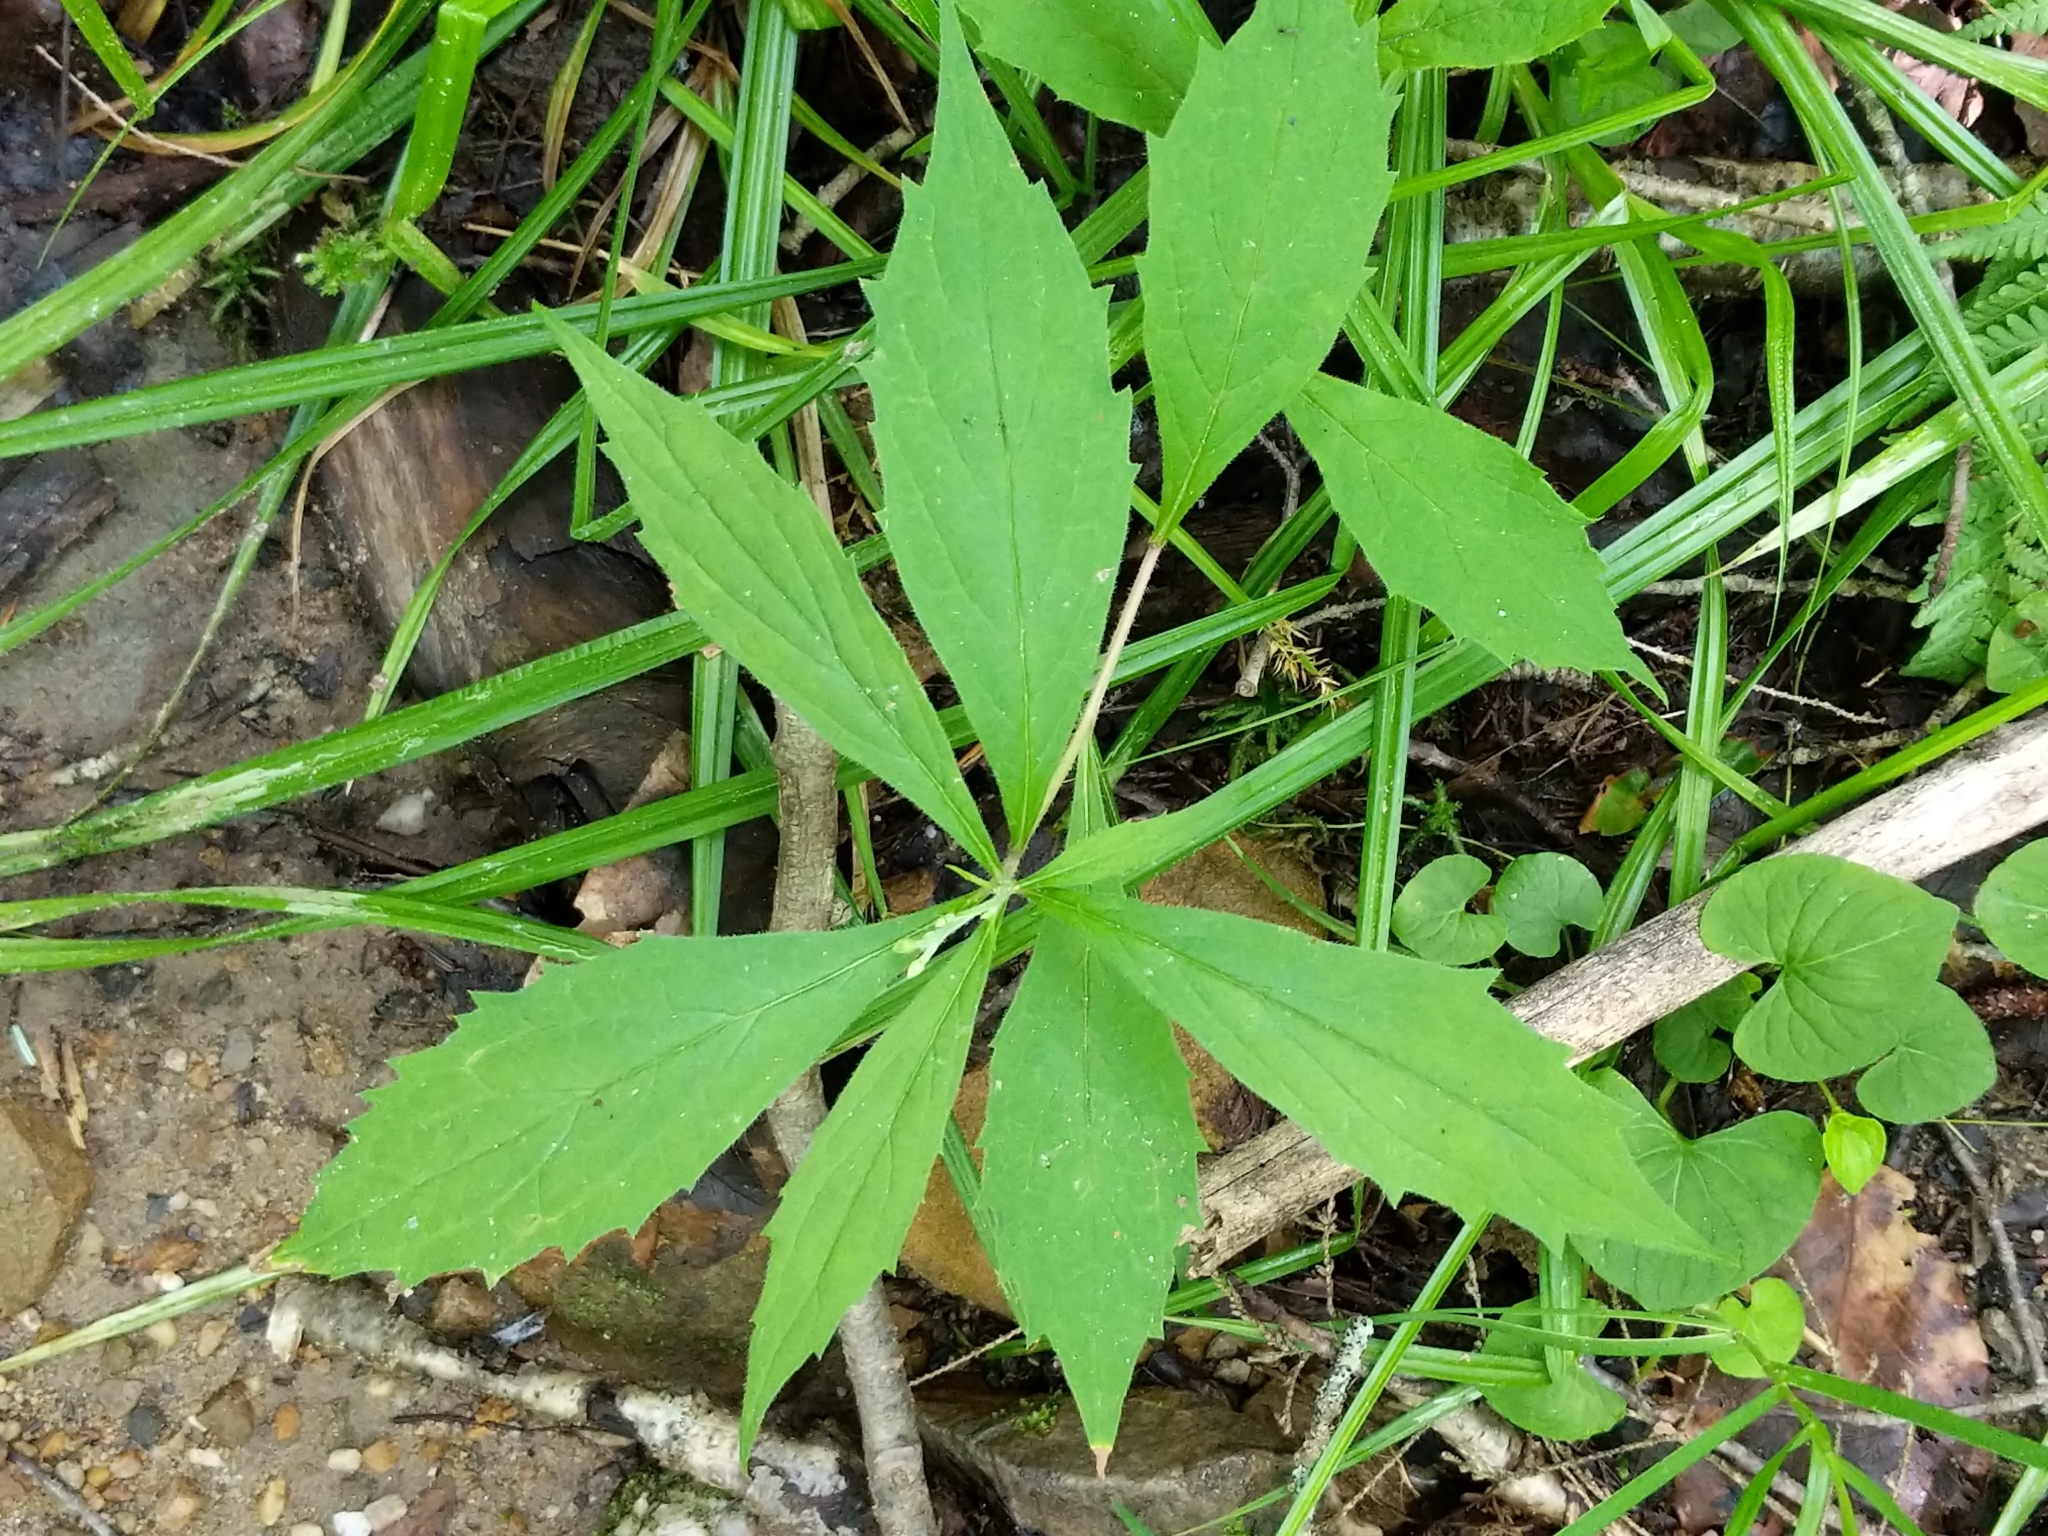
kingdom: Plantae
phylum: Tracheophyta
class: Magnoliopsida
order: Asterales
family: Asteraceae
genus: Oclemena
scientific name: Oclemena acuminata
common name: Mountain aster
